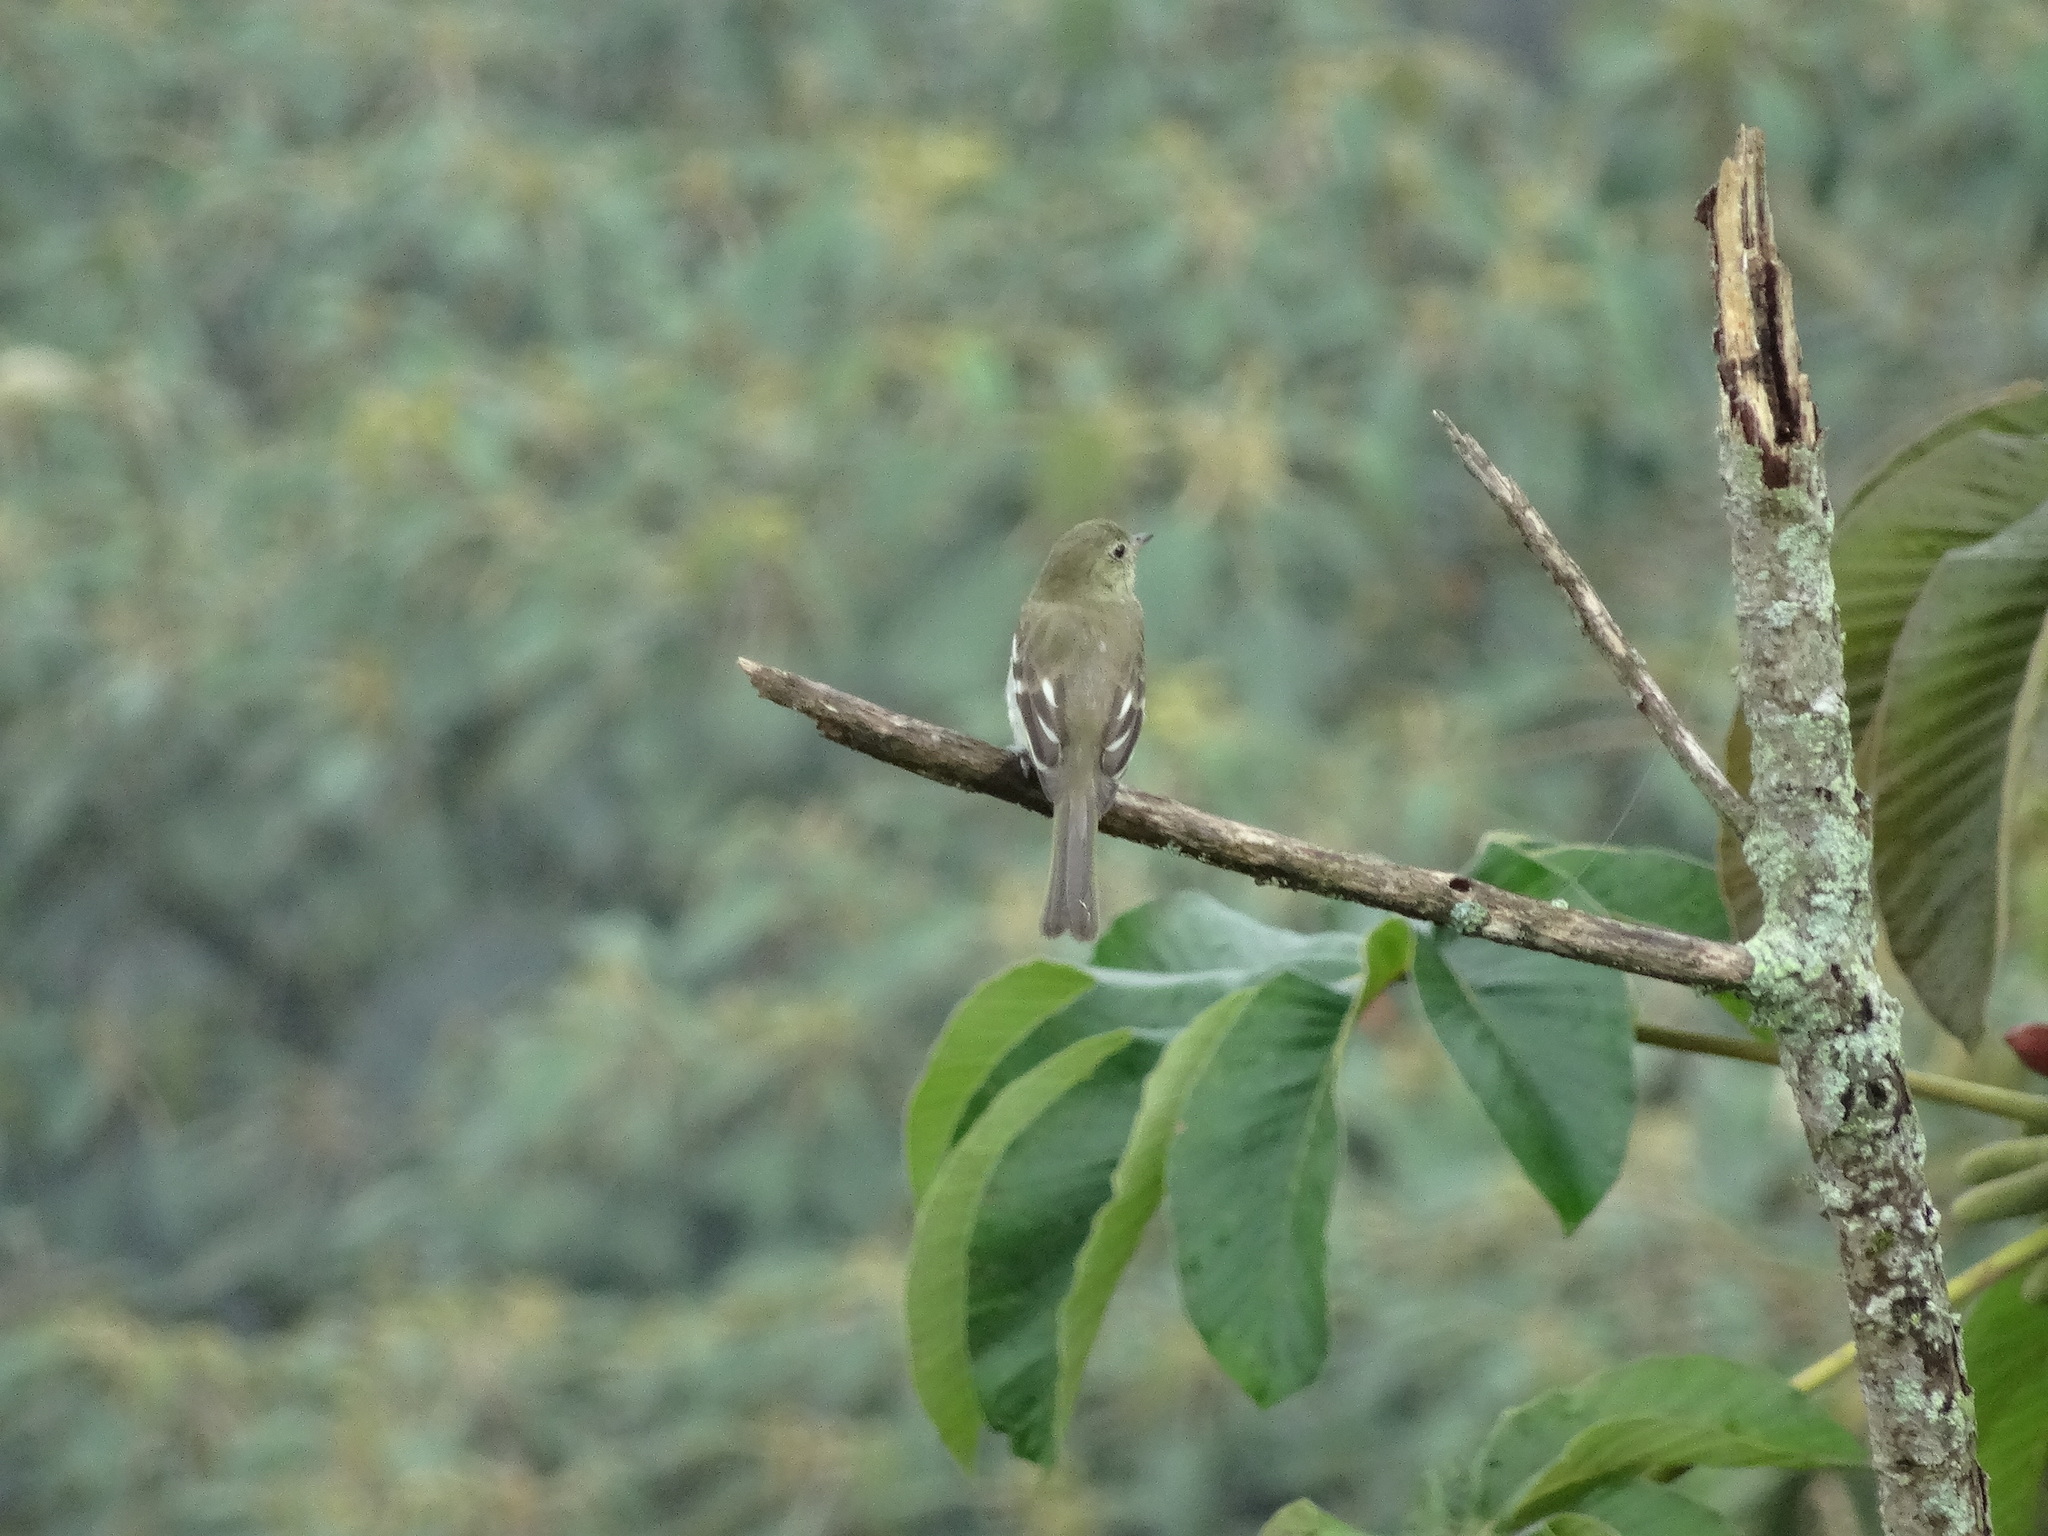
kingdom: Animalia
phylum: Chordata
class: Aves
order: Passeriformes
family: Tyrannidae
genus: Elaenia
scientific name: Elaenia frantzii
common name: Mountain elaenia
